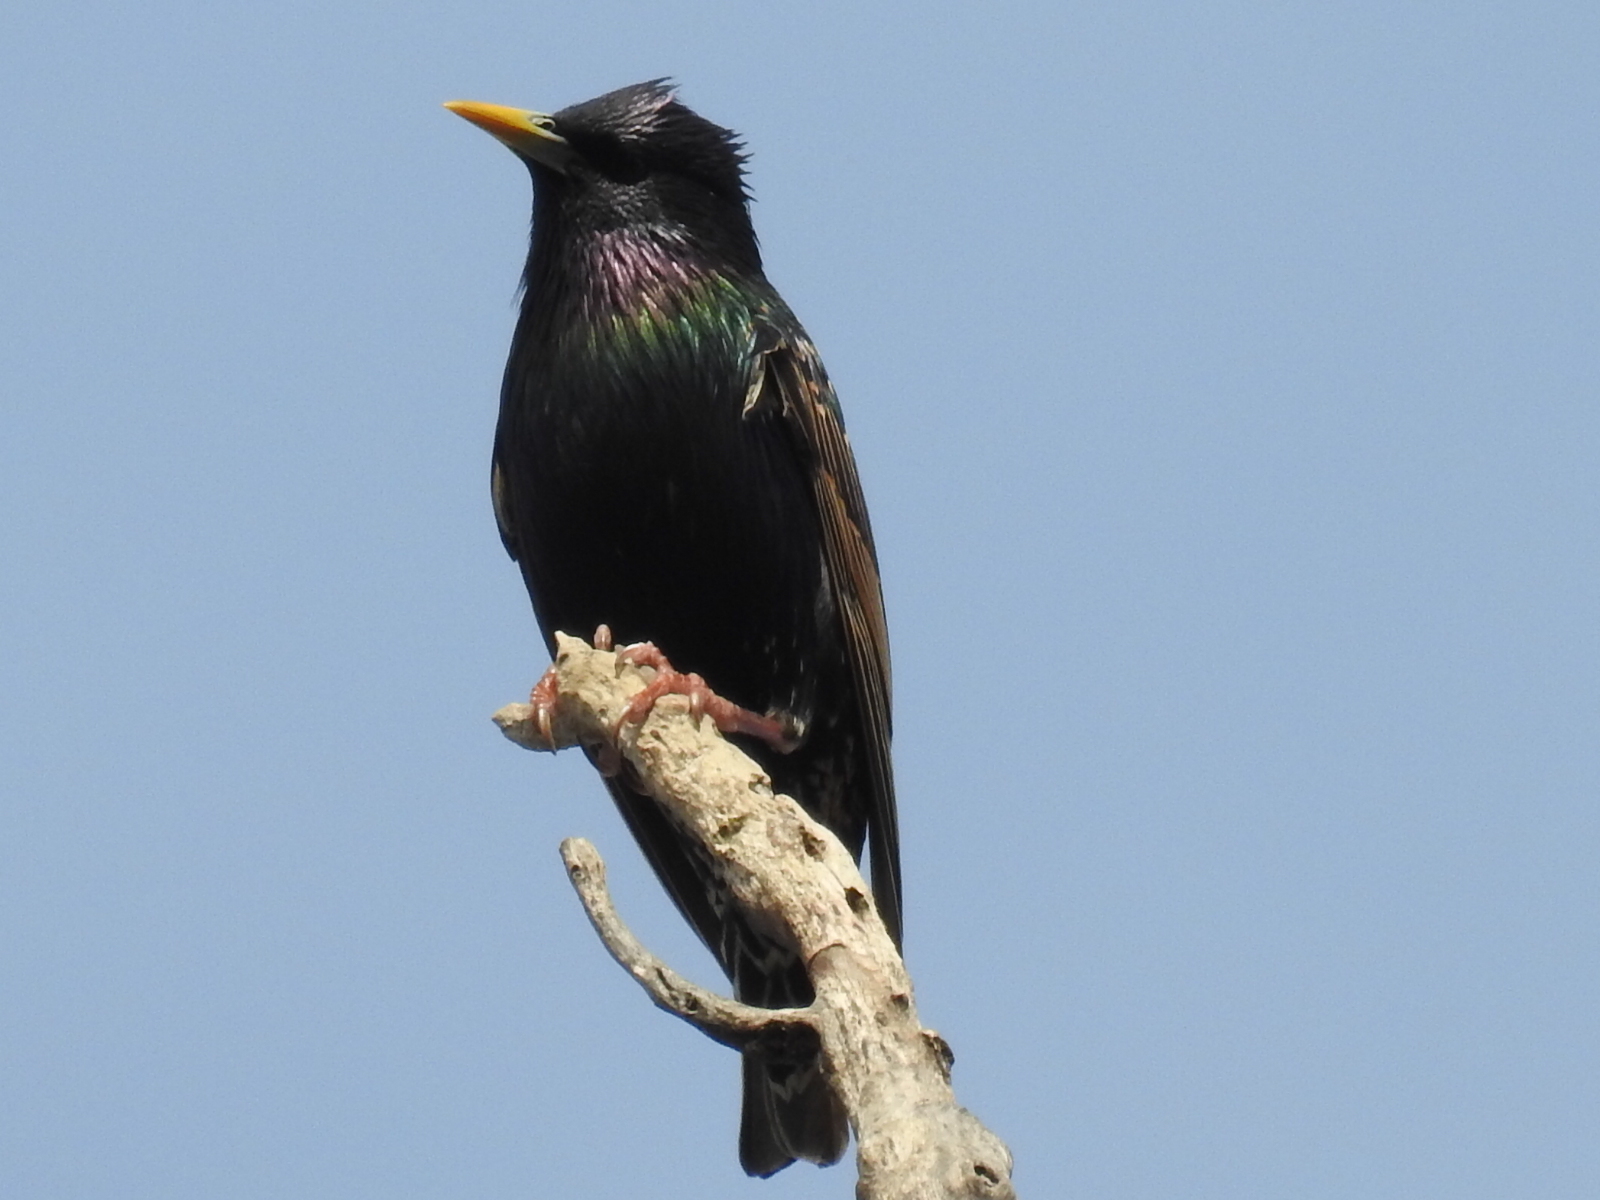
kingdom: Animalia
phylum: Chordata
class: Aves
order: Passeriformes
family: Sturnidae
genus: Sturnus
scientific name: Sturnus vulgaris
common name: Common starling
